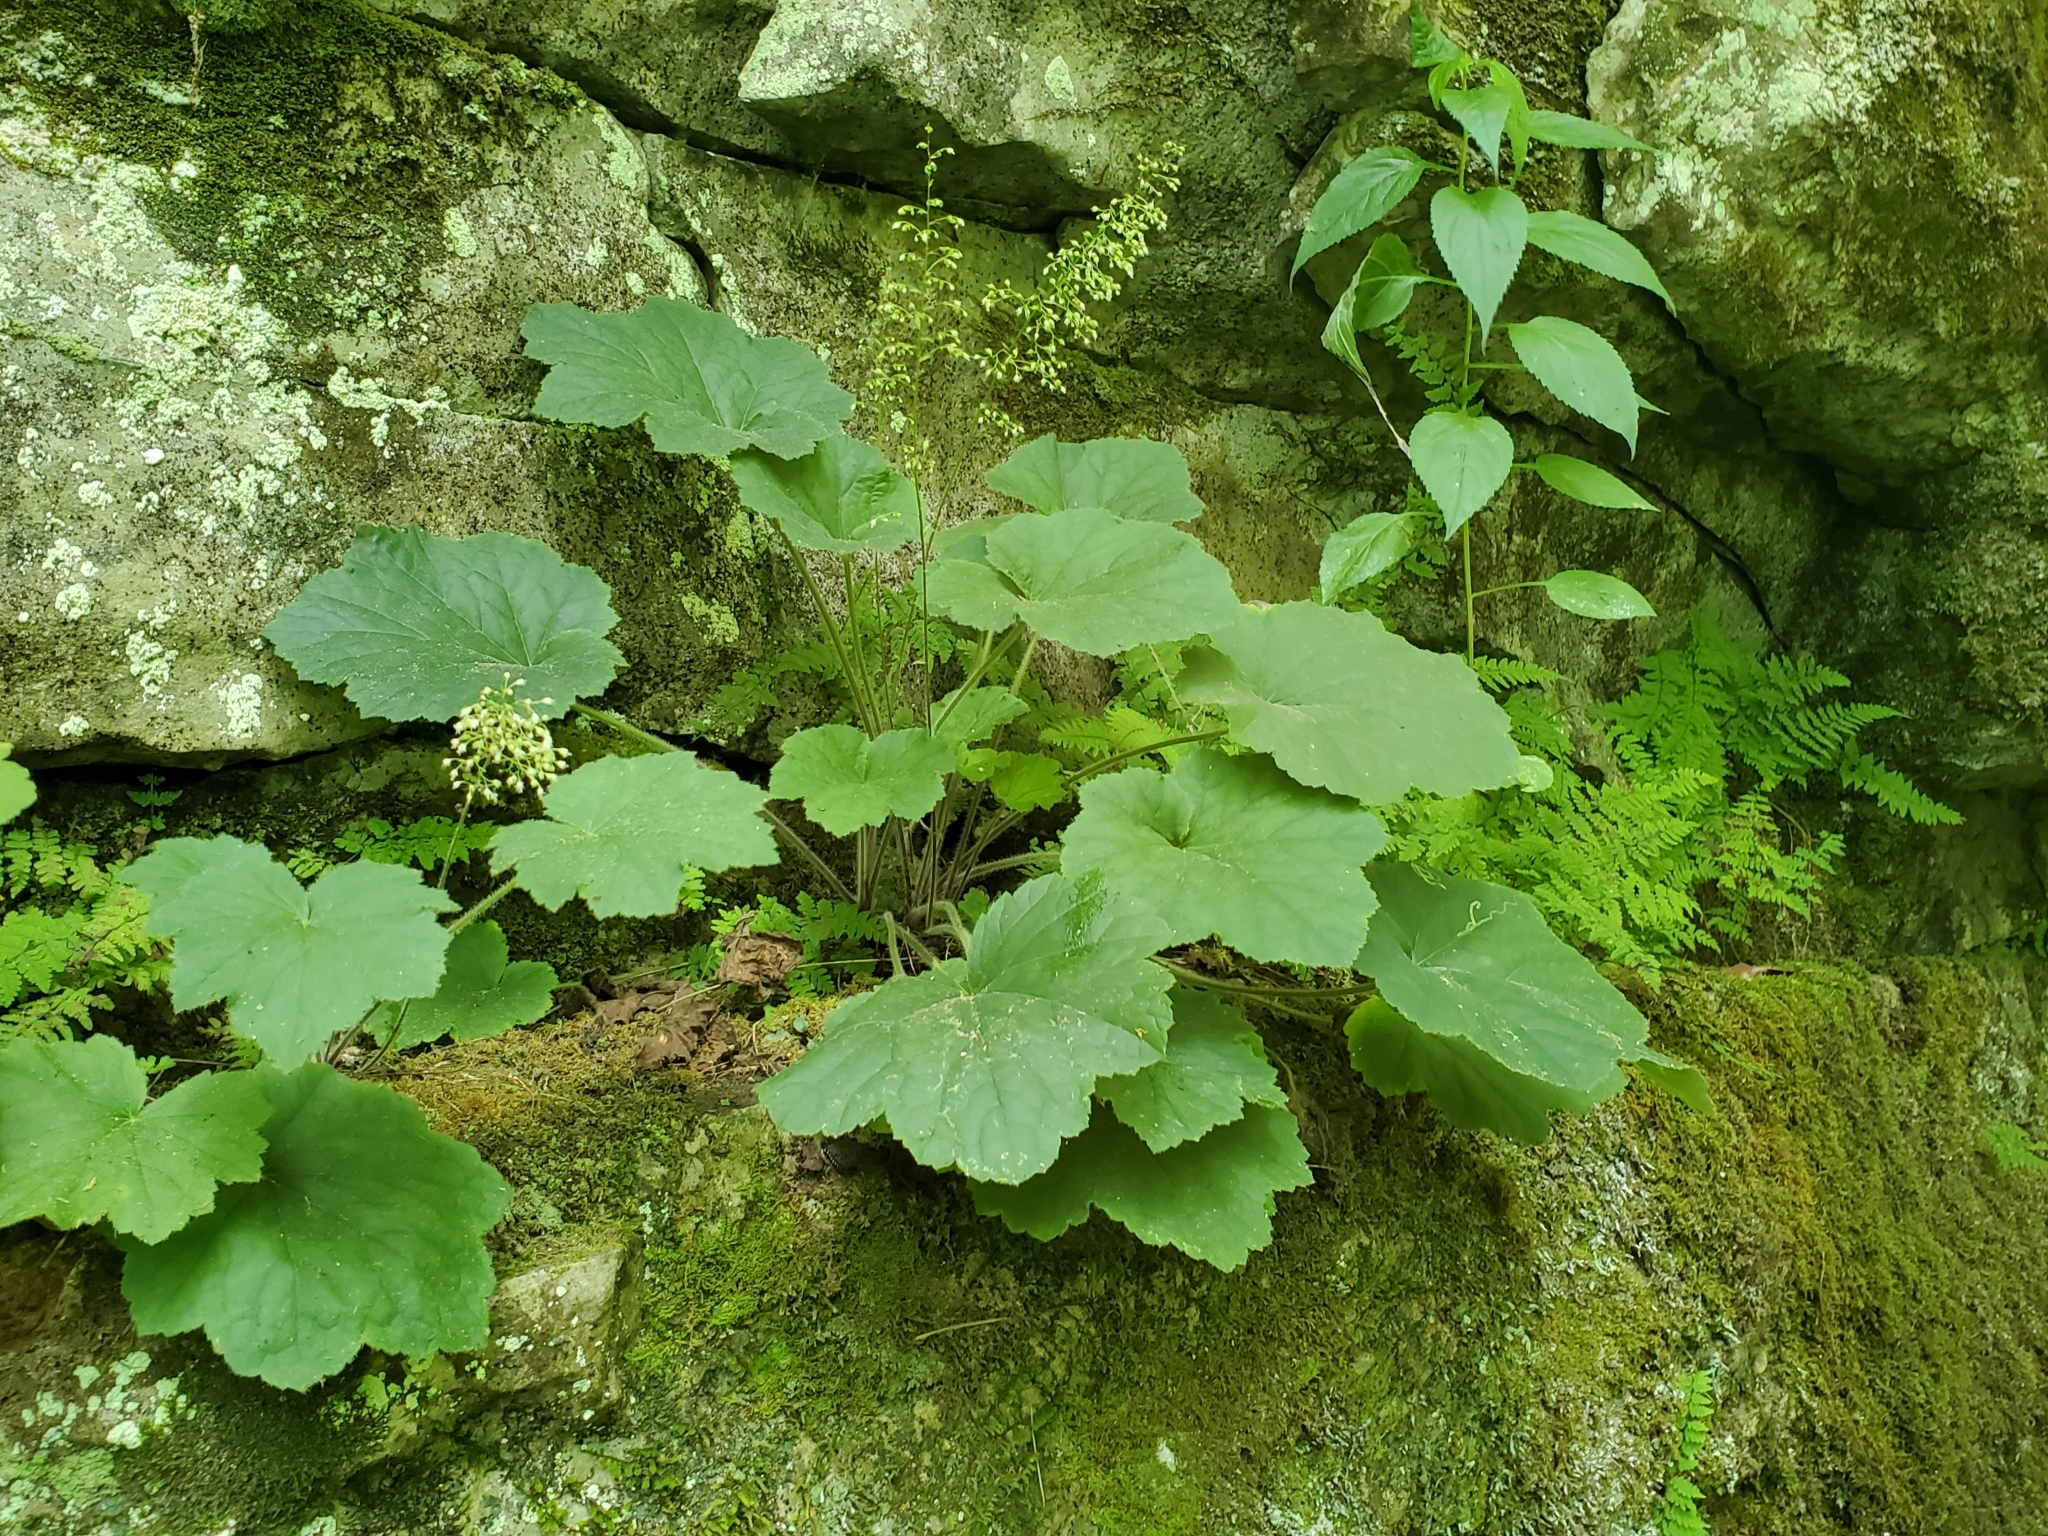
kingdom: Plantae
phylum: Tracheophyta
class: Magnoliopsida
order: Saxifragales
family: Saxifragaceae
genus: Heuchera
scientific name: Heuchera villosa
